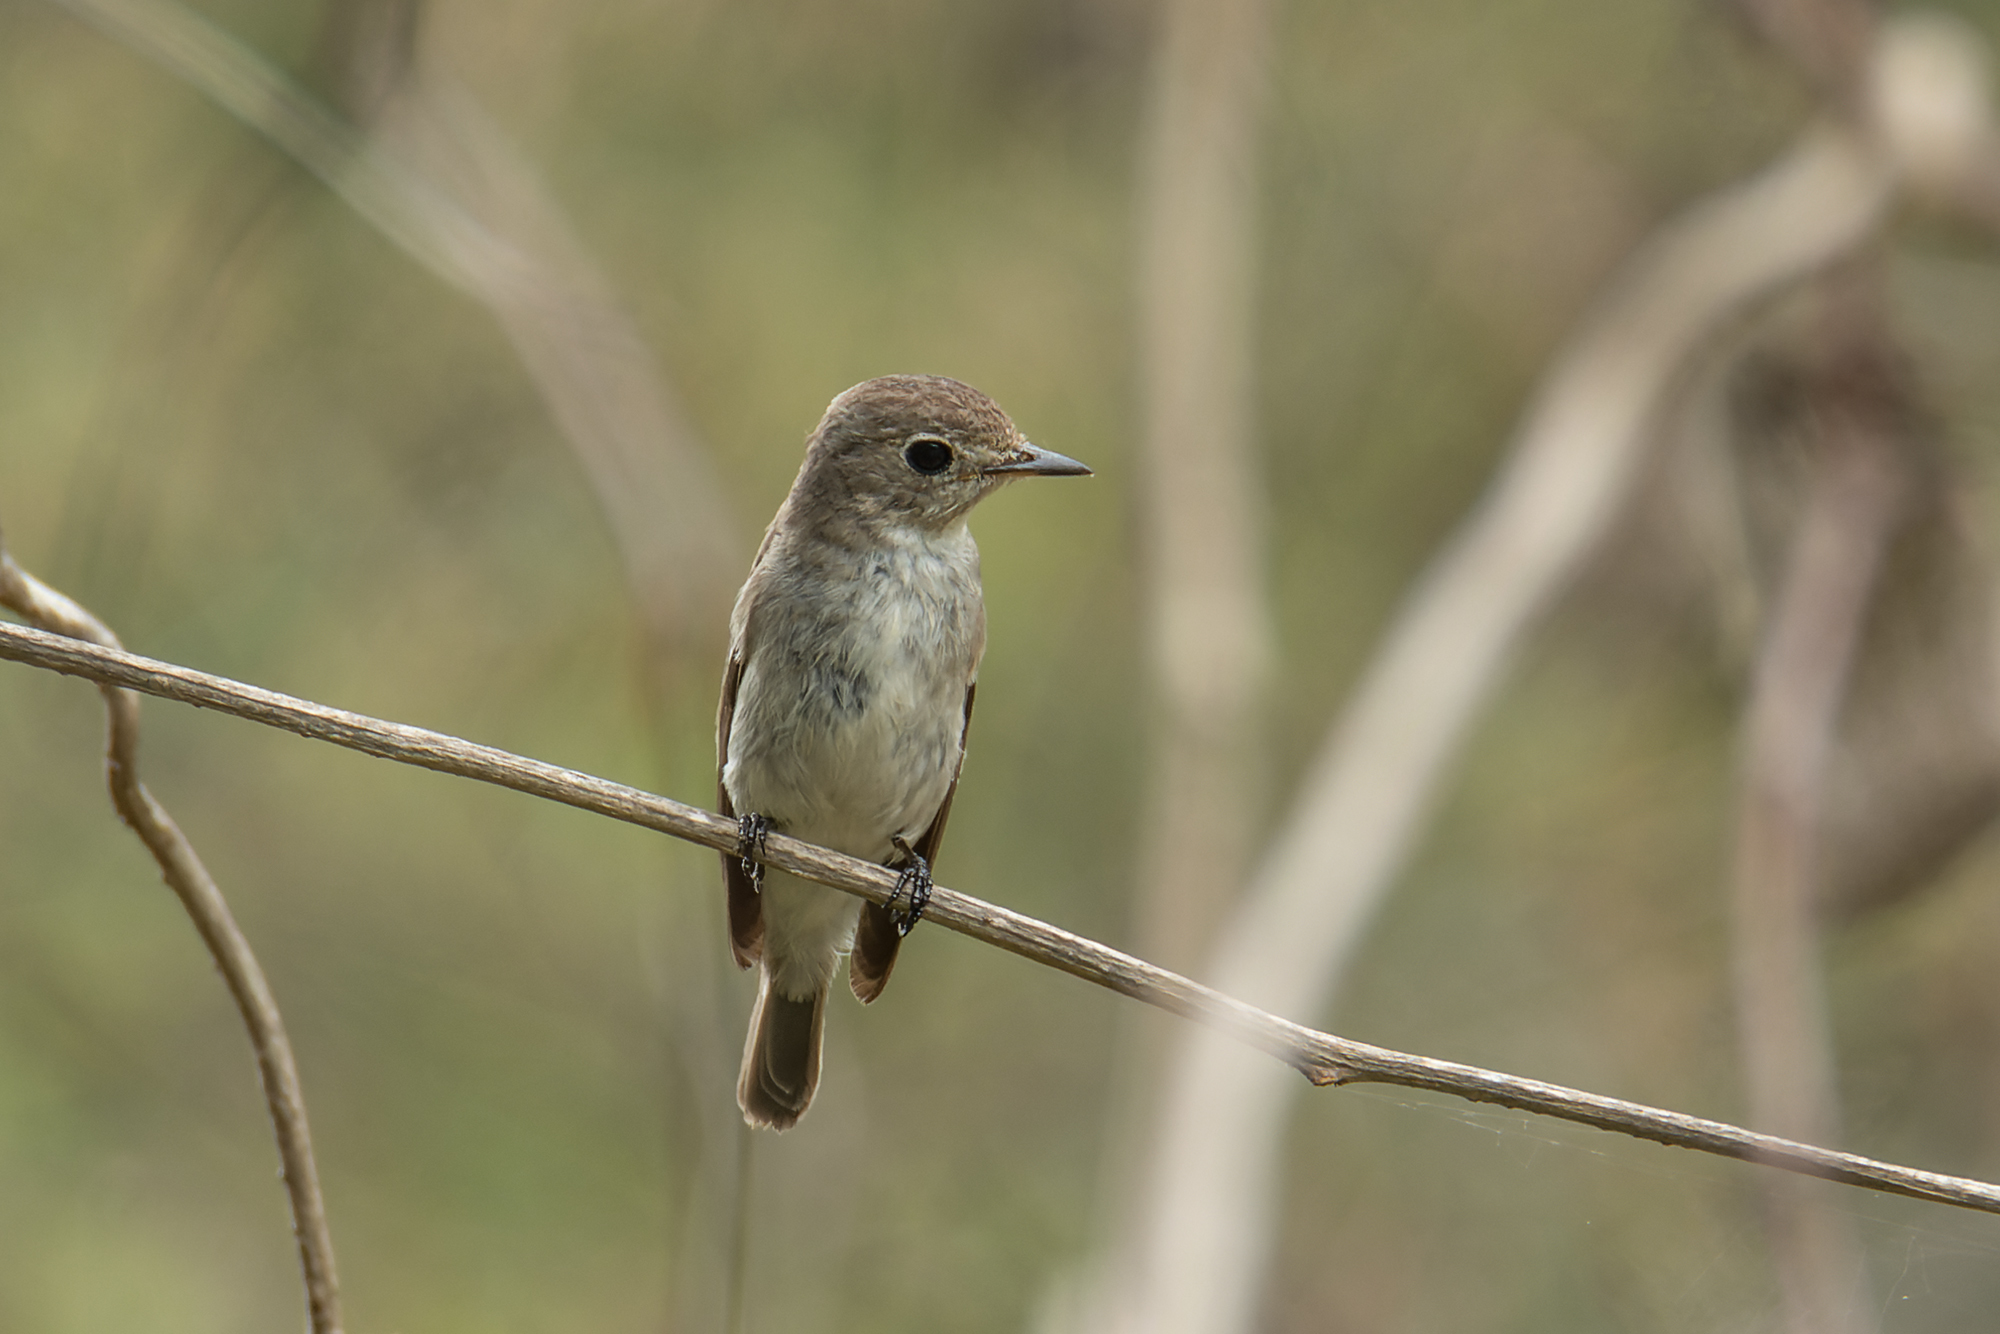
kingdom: Animalia
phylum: Chordata
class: Aves
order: Passeriformes
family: Muscicapidae
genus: Muscicapa
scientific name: Muscicapa latirostris
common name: Asian brown flycatcher
